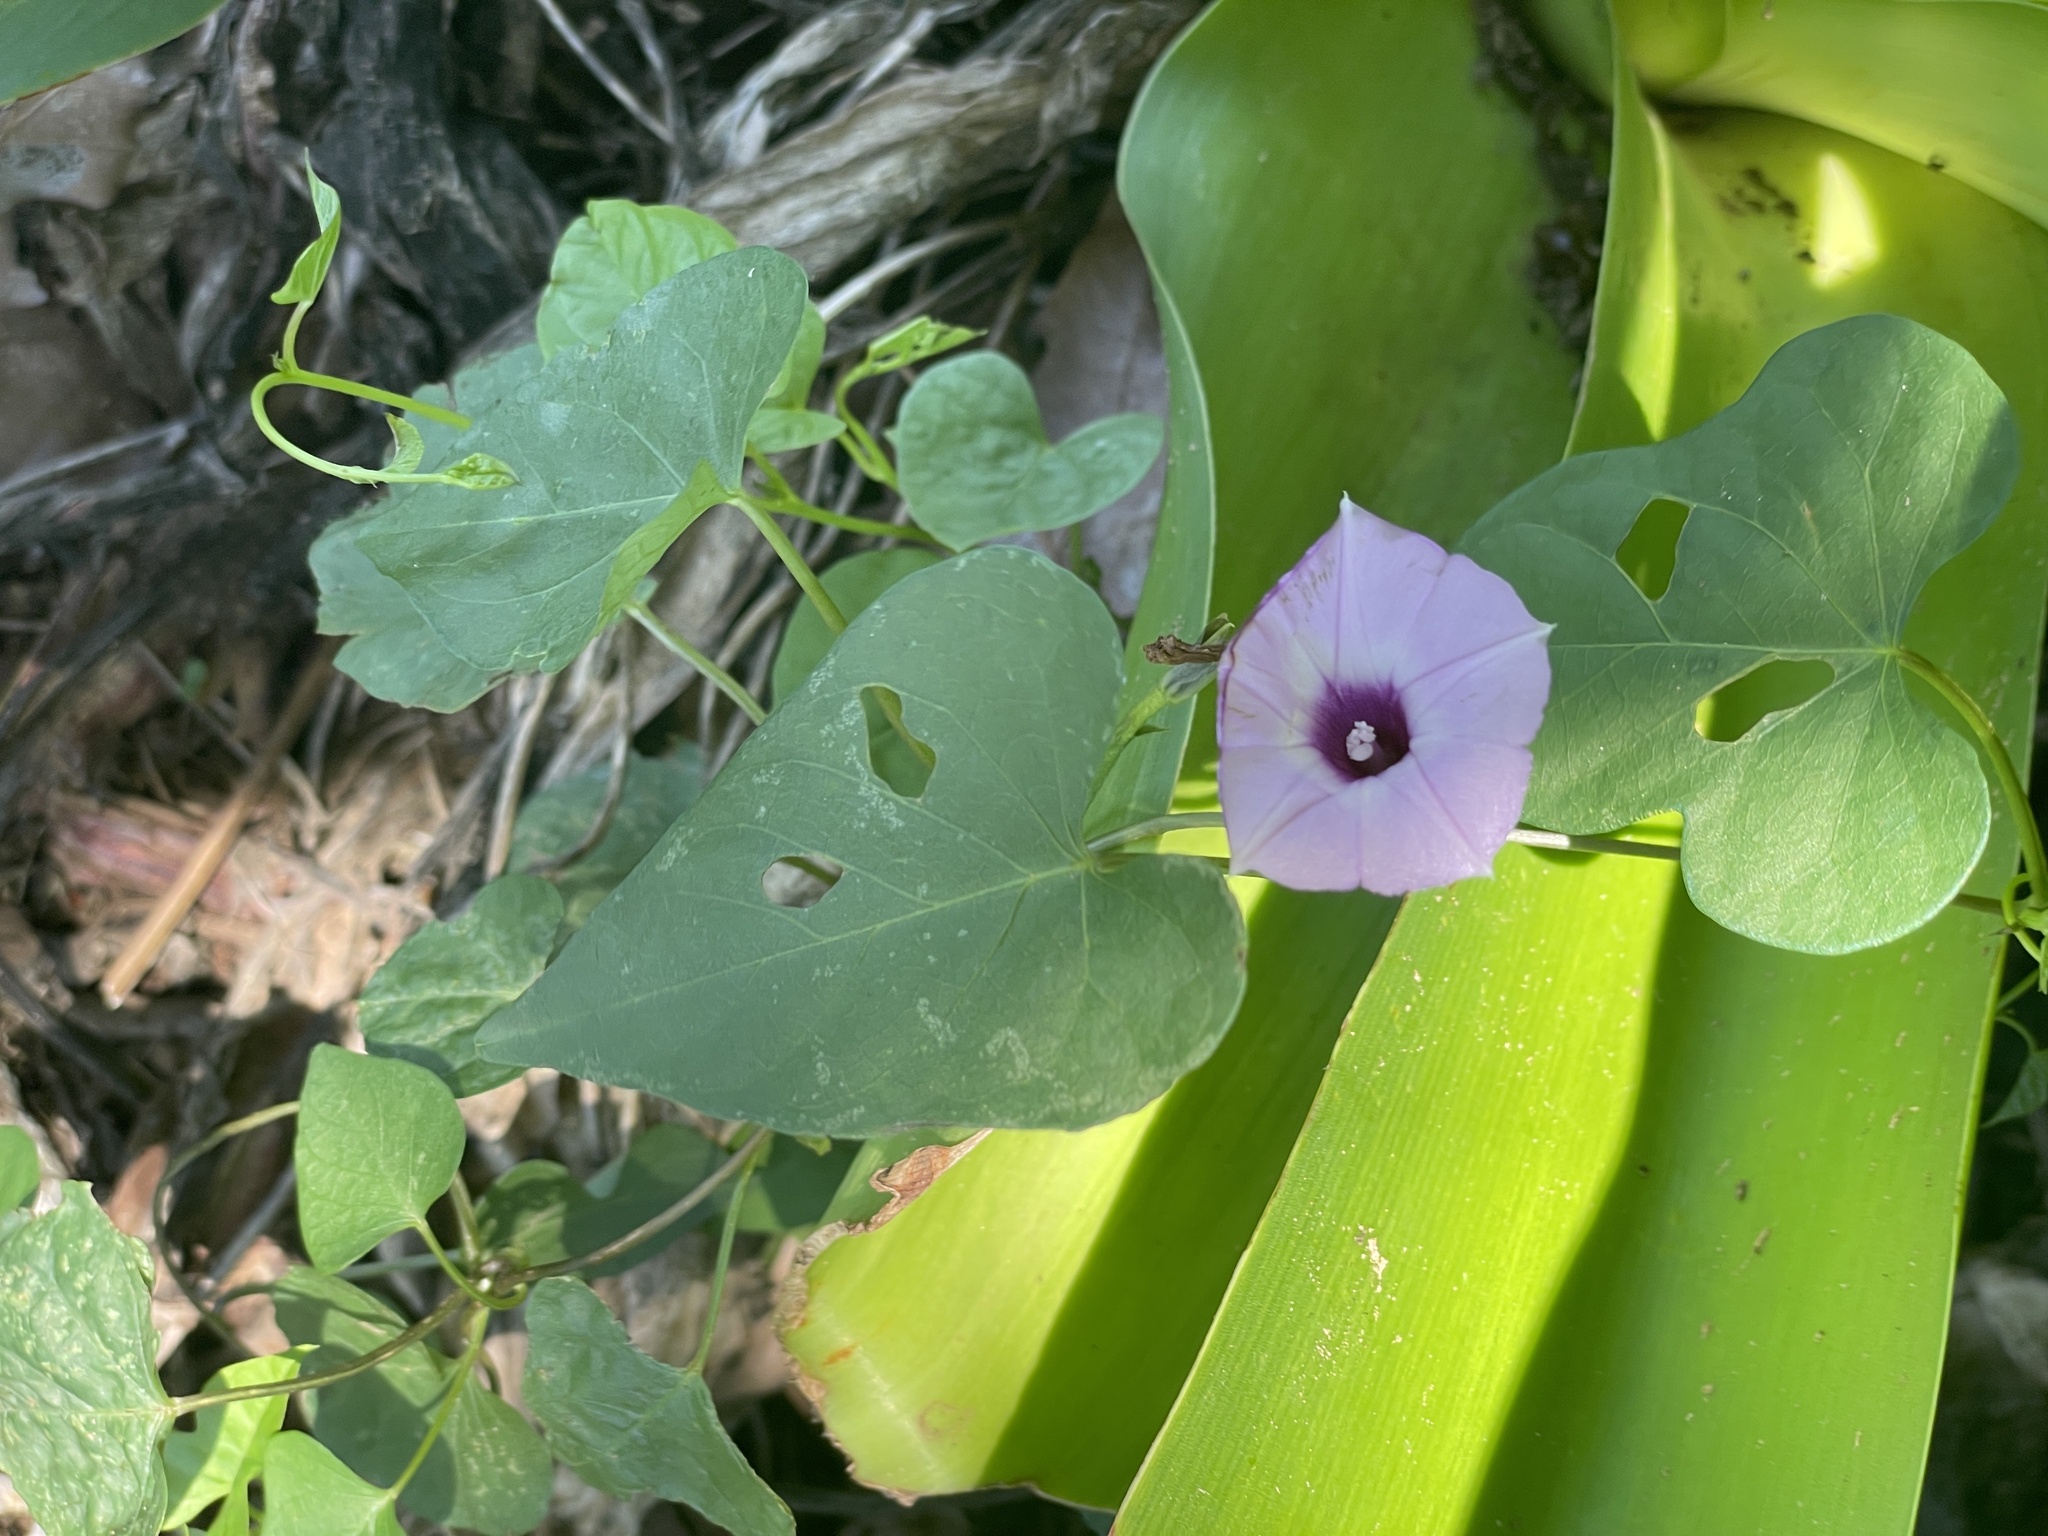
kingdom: Plantae
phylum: Tracheophyta
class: Magnoliopsida
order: Solanales
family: Convolvulaceae
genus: Ipomoea
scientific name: Ipomoea cordatotriloba
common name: Cotton morning glory
